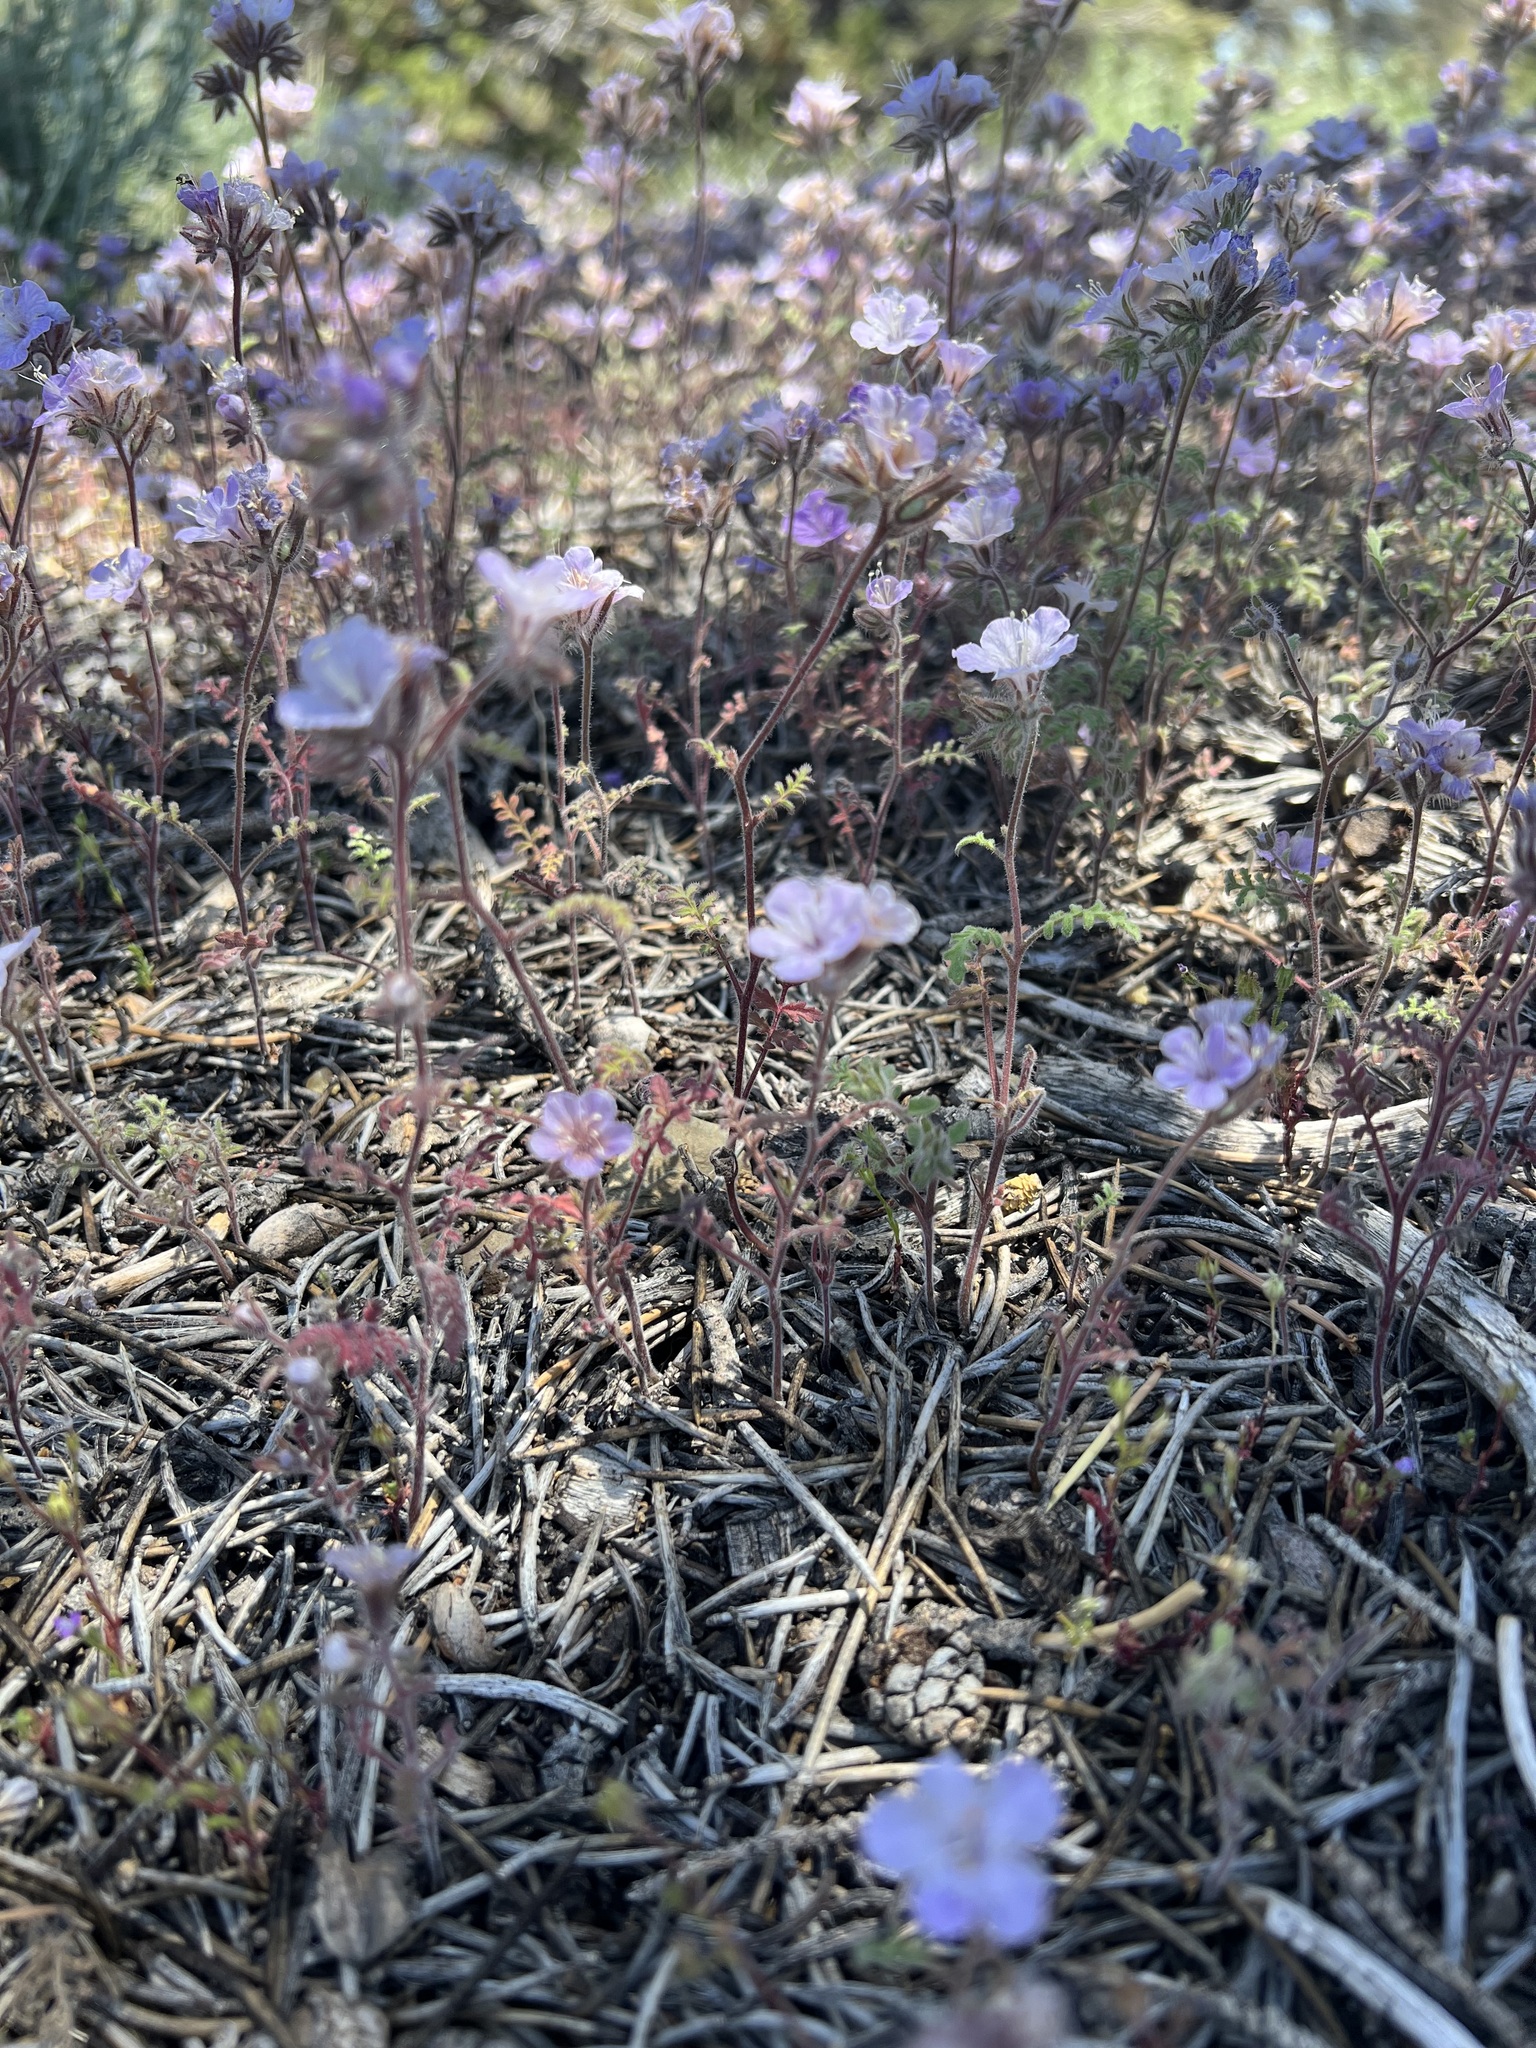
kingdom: Plantae
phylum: Tracheophyta
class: Magnoliopsida
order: Boraginales
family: Hydrophyllaceae
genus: Phacelia
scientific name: Phacelia vallis-mortae
